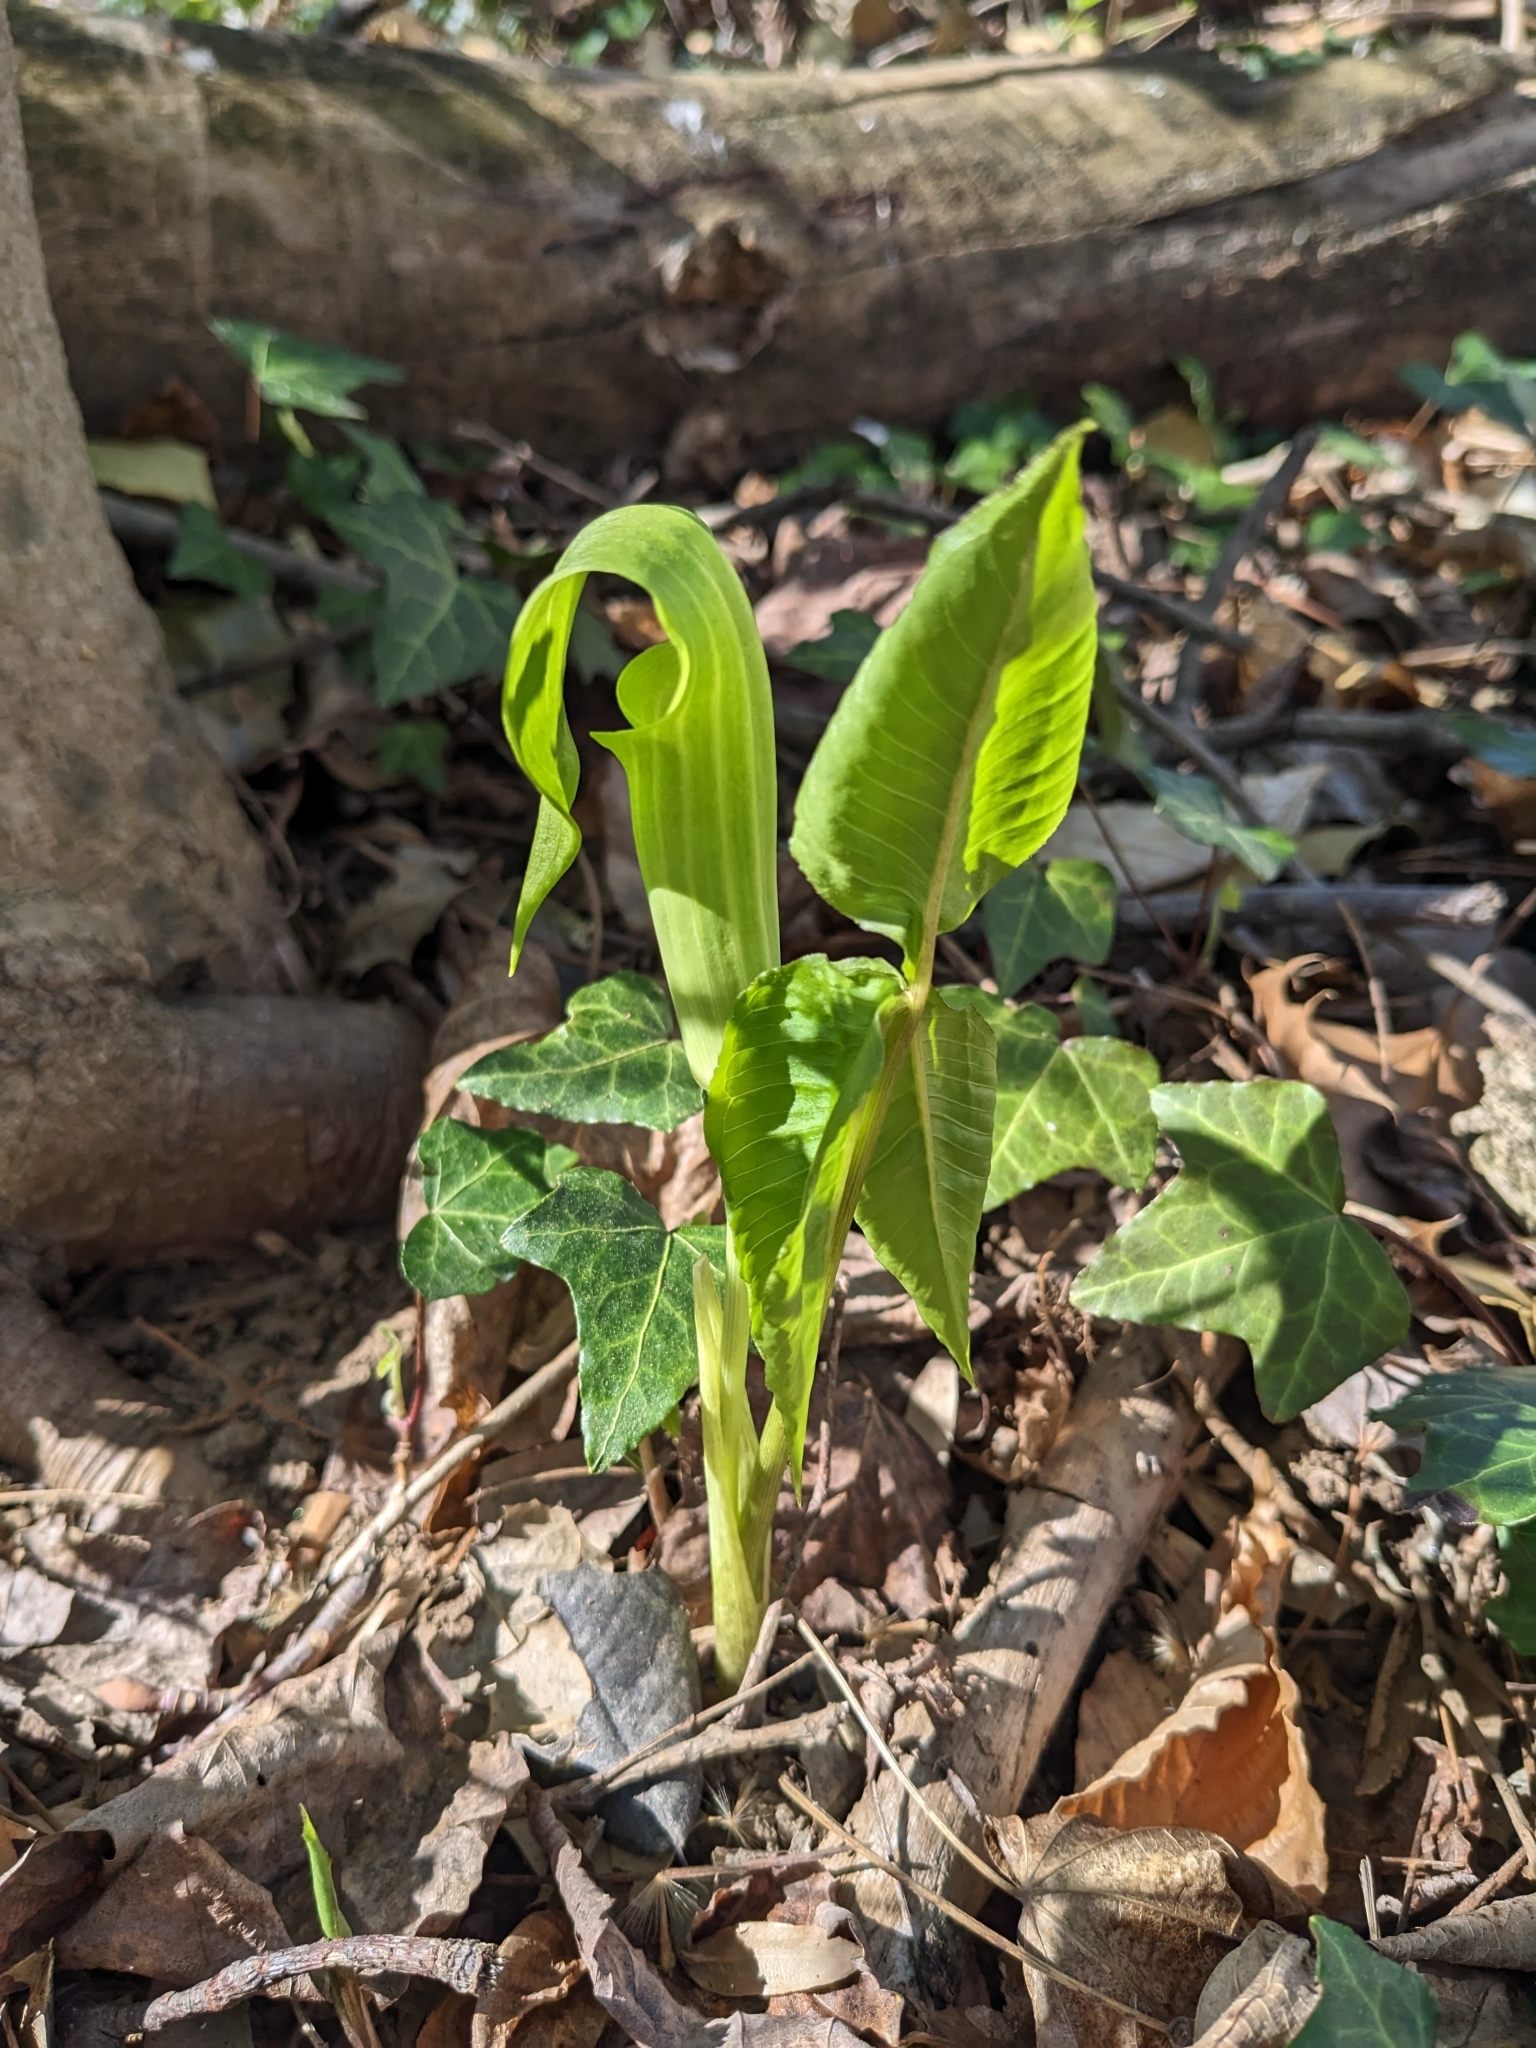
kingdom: Plantae
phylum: Tracheophyta
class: Liliopsida
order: Alismatales
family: Araceae
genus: Arisaema
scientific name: Arisaema triphyllum
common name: Jack-in-the-pulpit
